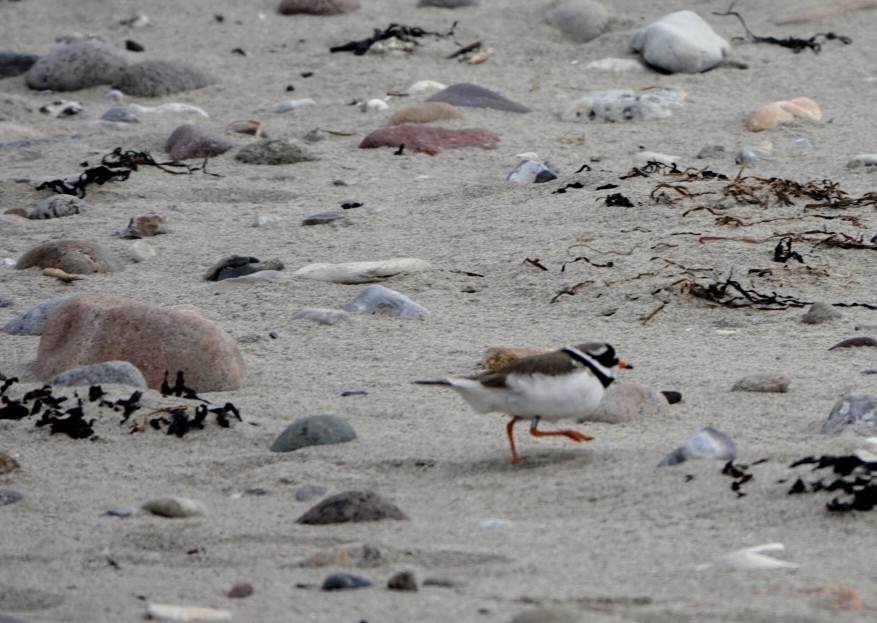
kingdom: Animalia
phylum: Chordata
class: Aves
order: Charadriiformes
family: Charadriidae
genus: Charadrius
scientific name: Charadrius hiaticula
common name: Common ringed plover
